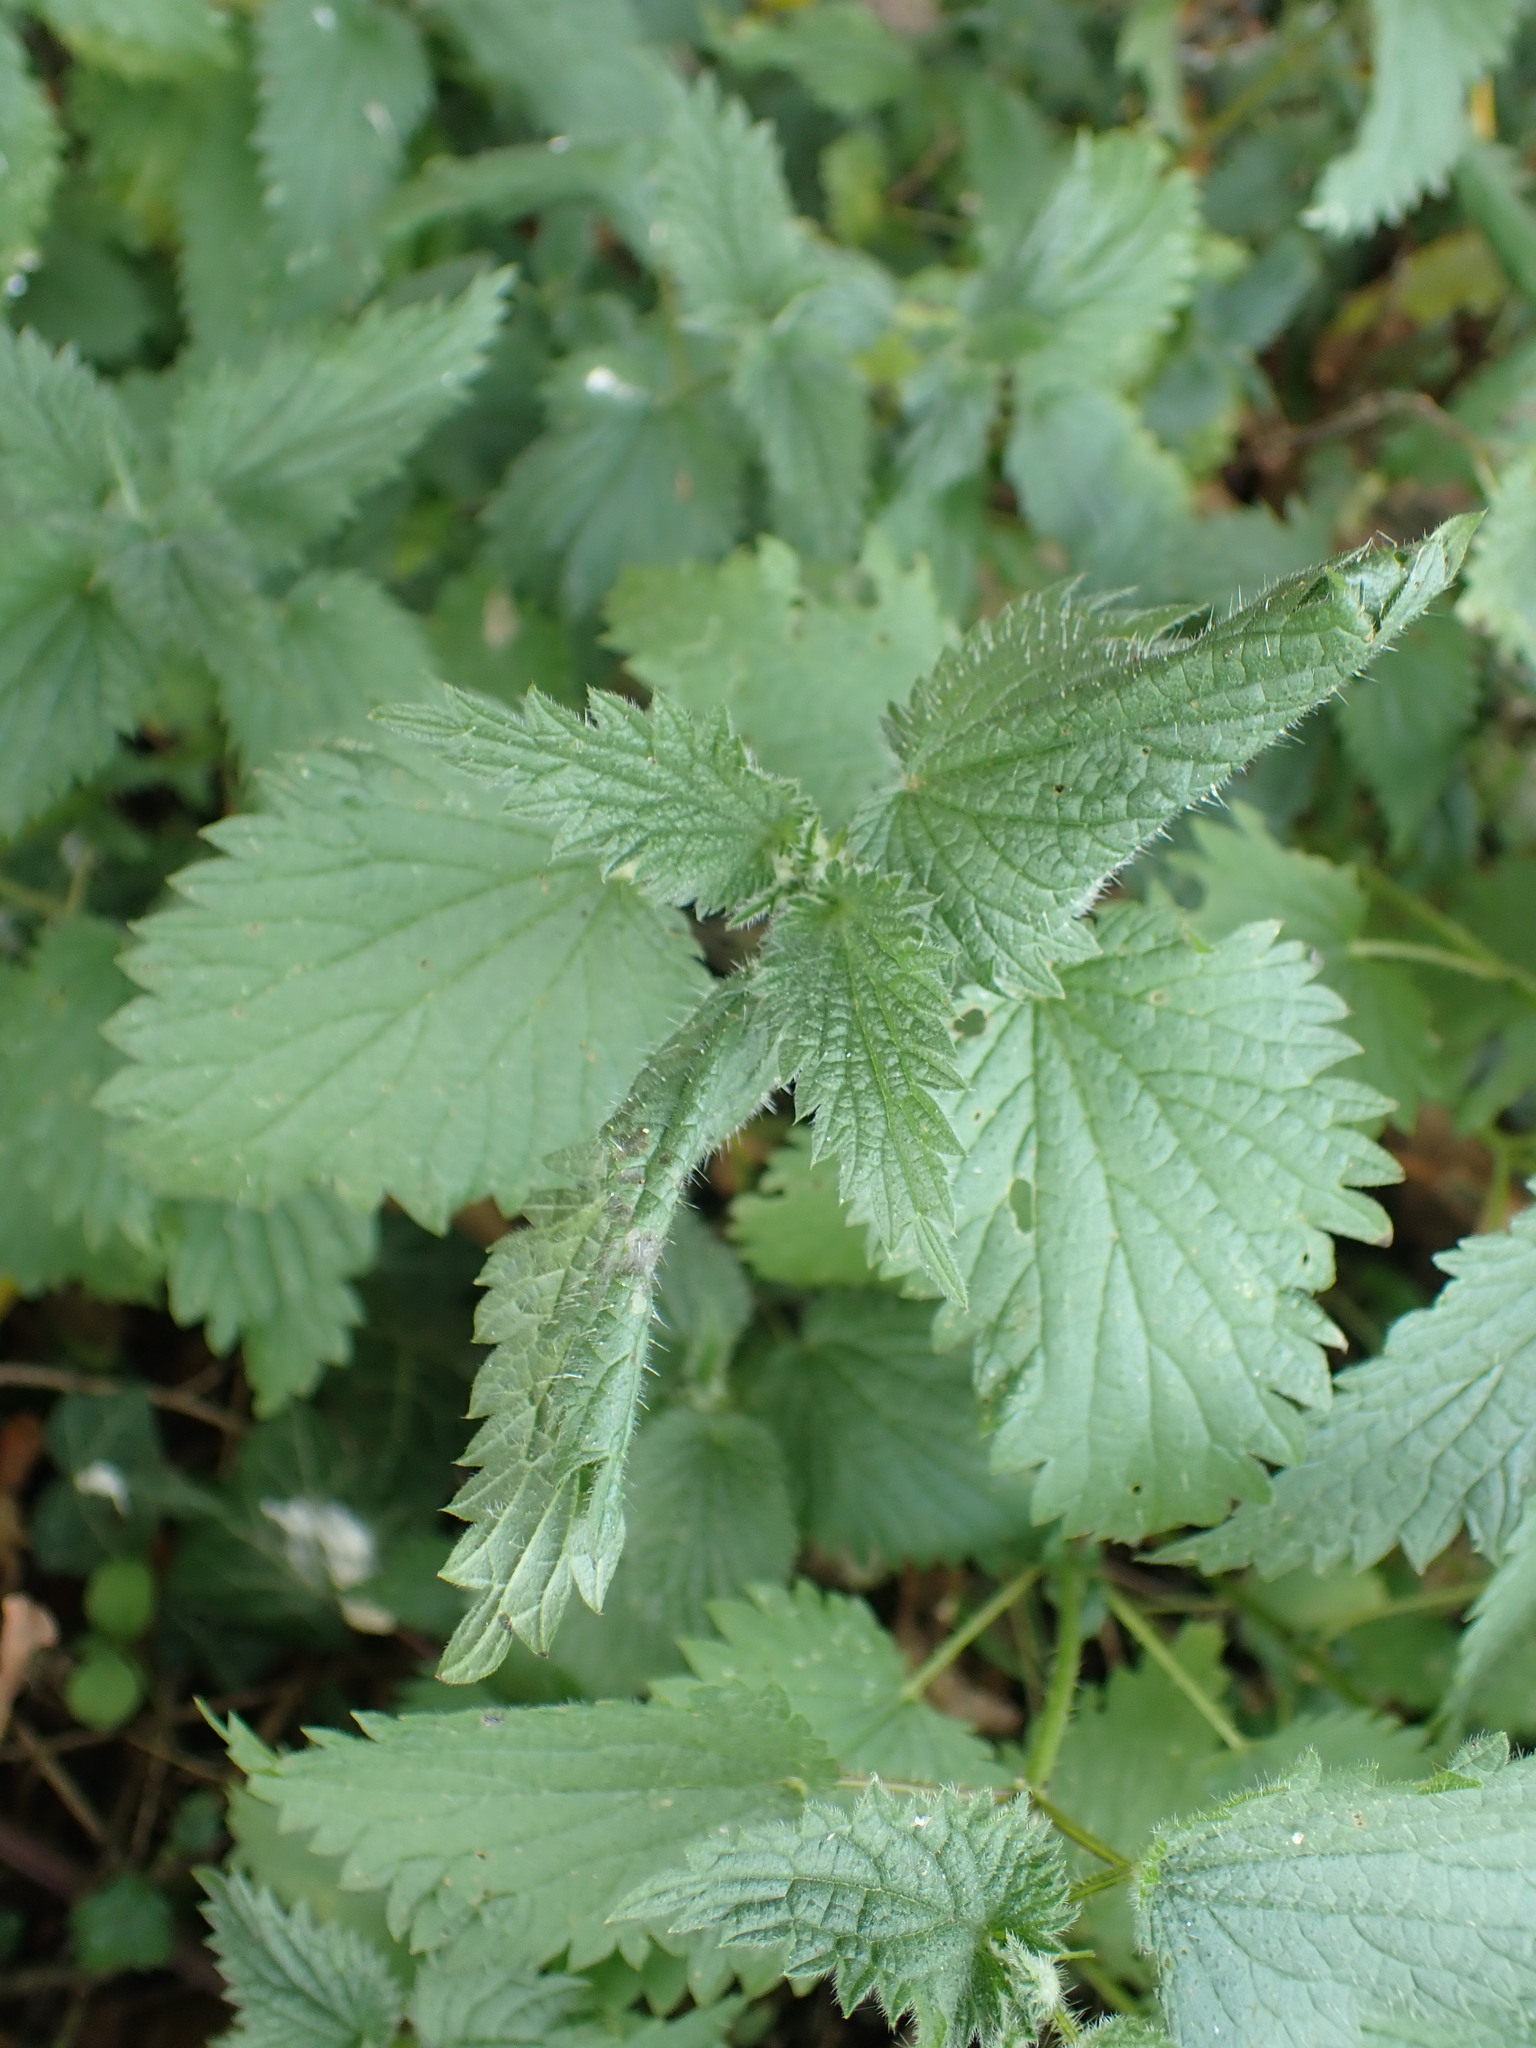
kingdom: Plantae
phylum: Tracheophyta
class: Magnoliopsida
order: Rosales
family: Urticaceae
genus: Urtica
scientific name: Urtica dioica
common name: Common nettle
